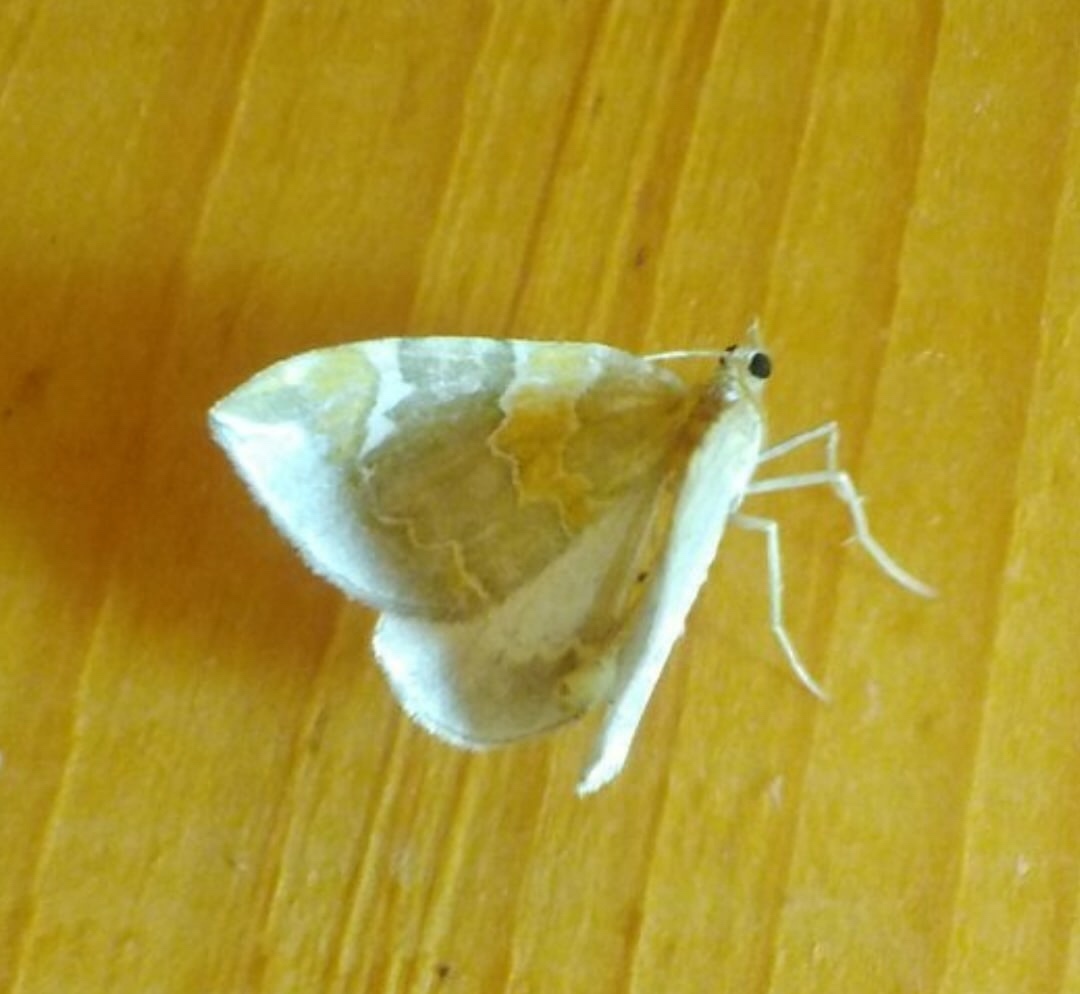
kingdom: Animalia
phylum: Arthropoda
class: Insecta
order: Lepidoptera
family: Geometridae
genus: Eulithis
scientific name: Eulithis pyropata
